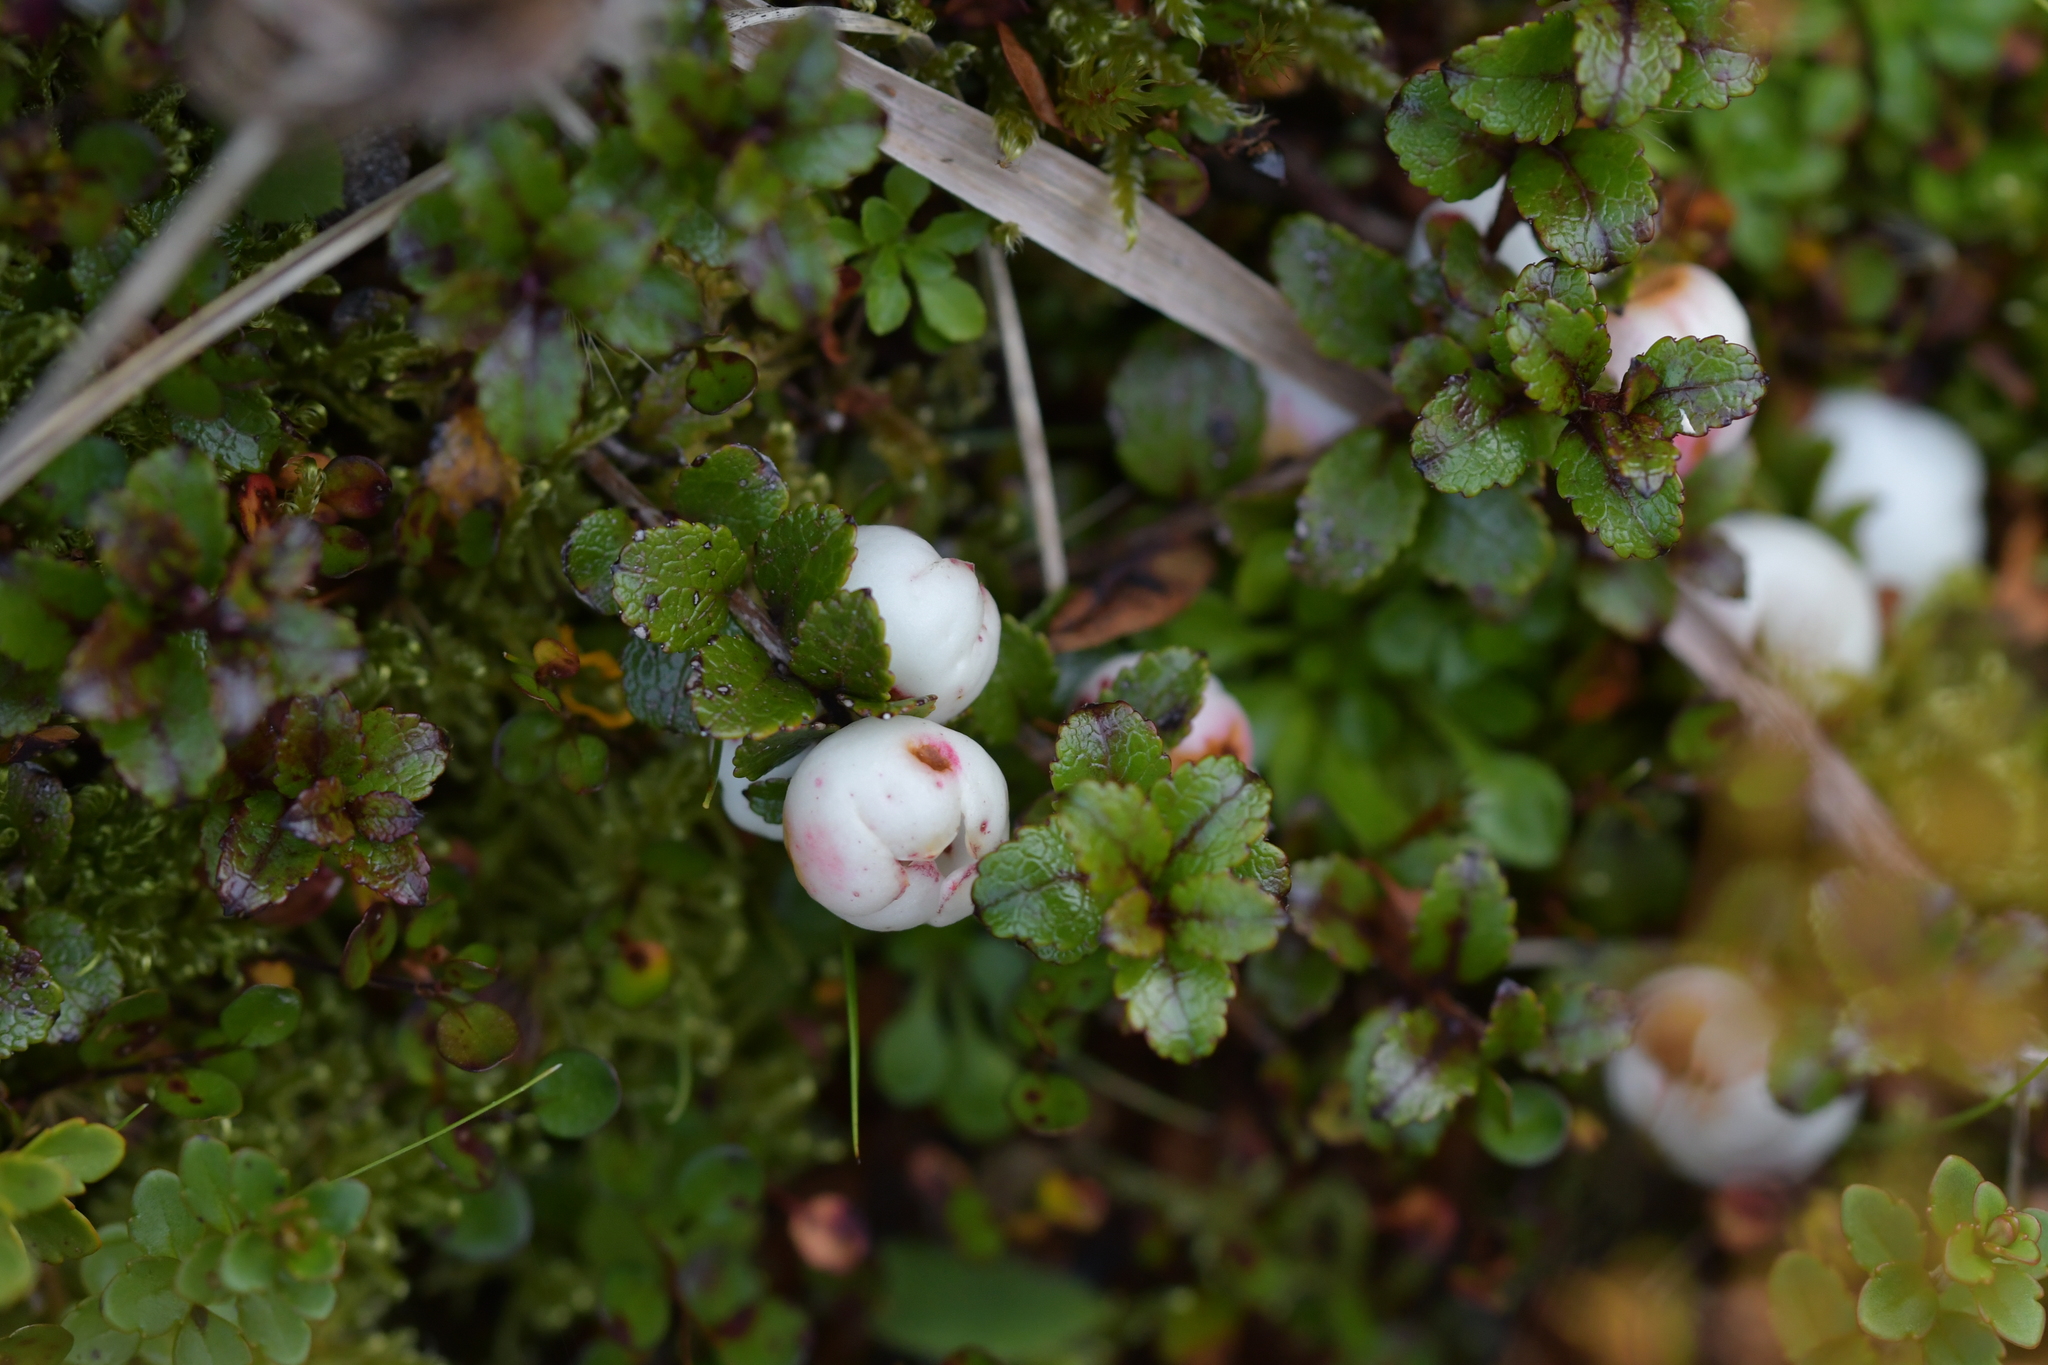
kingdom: Plantae
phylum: Tracheophyta
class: Magnoliopsida
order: Ericales
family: Ericaceae
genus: Gaultheria
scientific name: Gaultheria depressa
